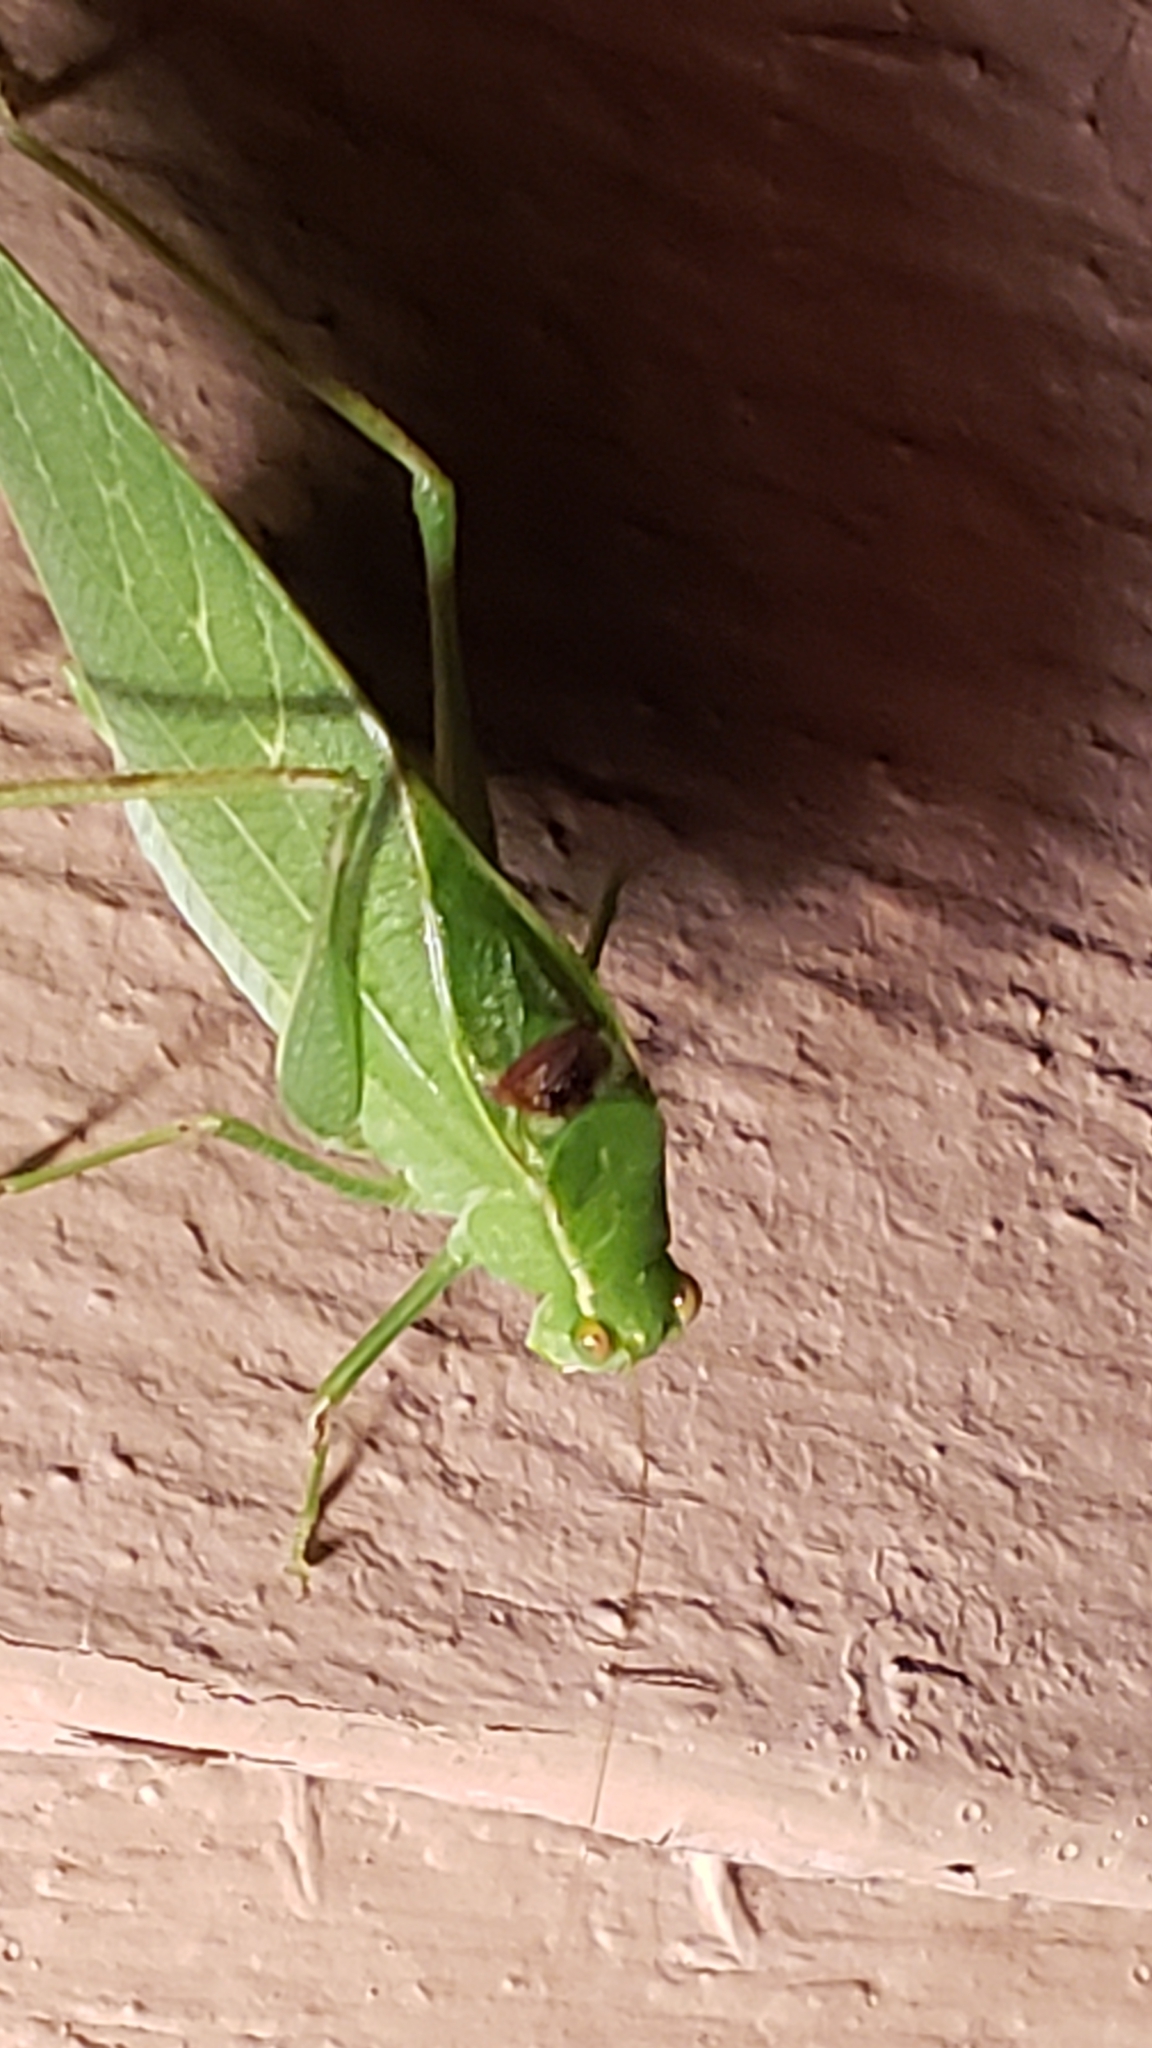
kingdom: Animalia
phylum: Arthropoda
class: Insecta
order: Orthoptera
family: Tettigoniidae
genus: Microcentrum
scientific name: Microcentrum retinerve
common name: Angular-winged katydid
